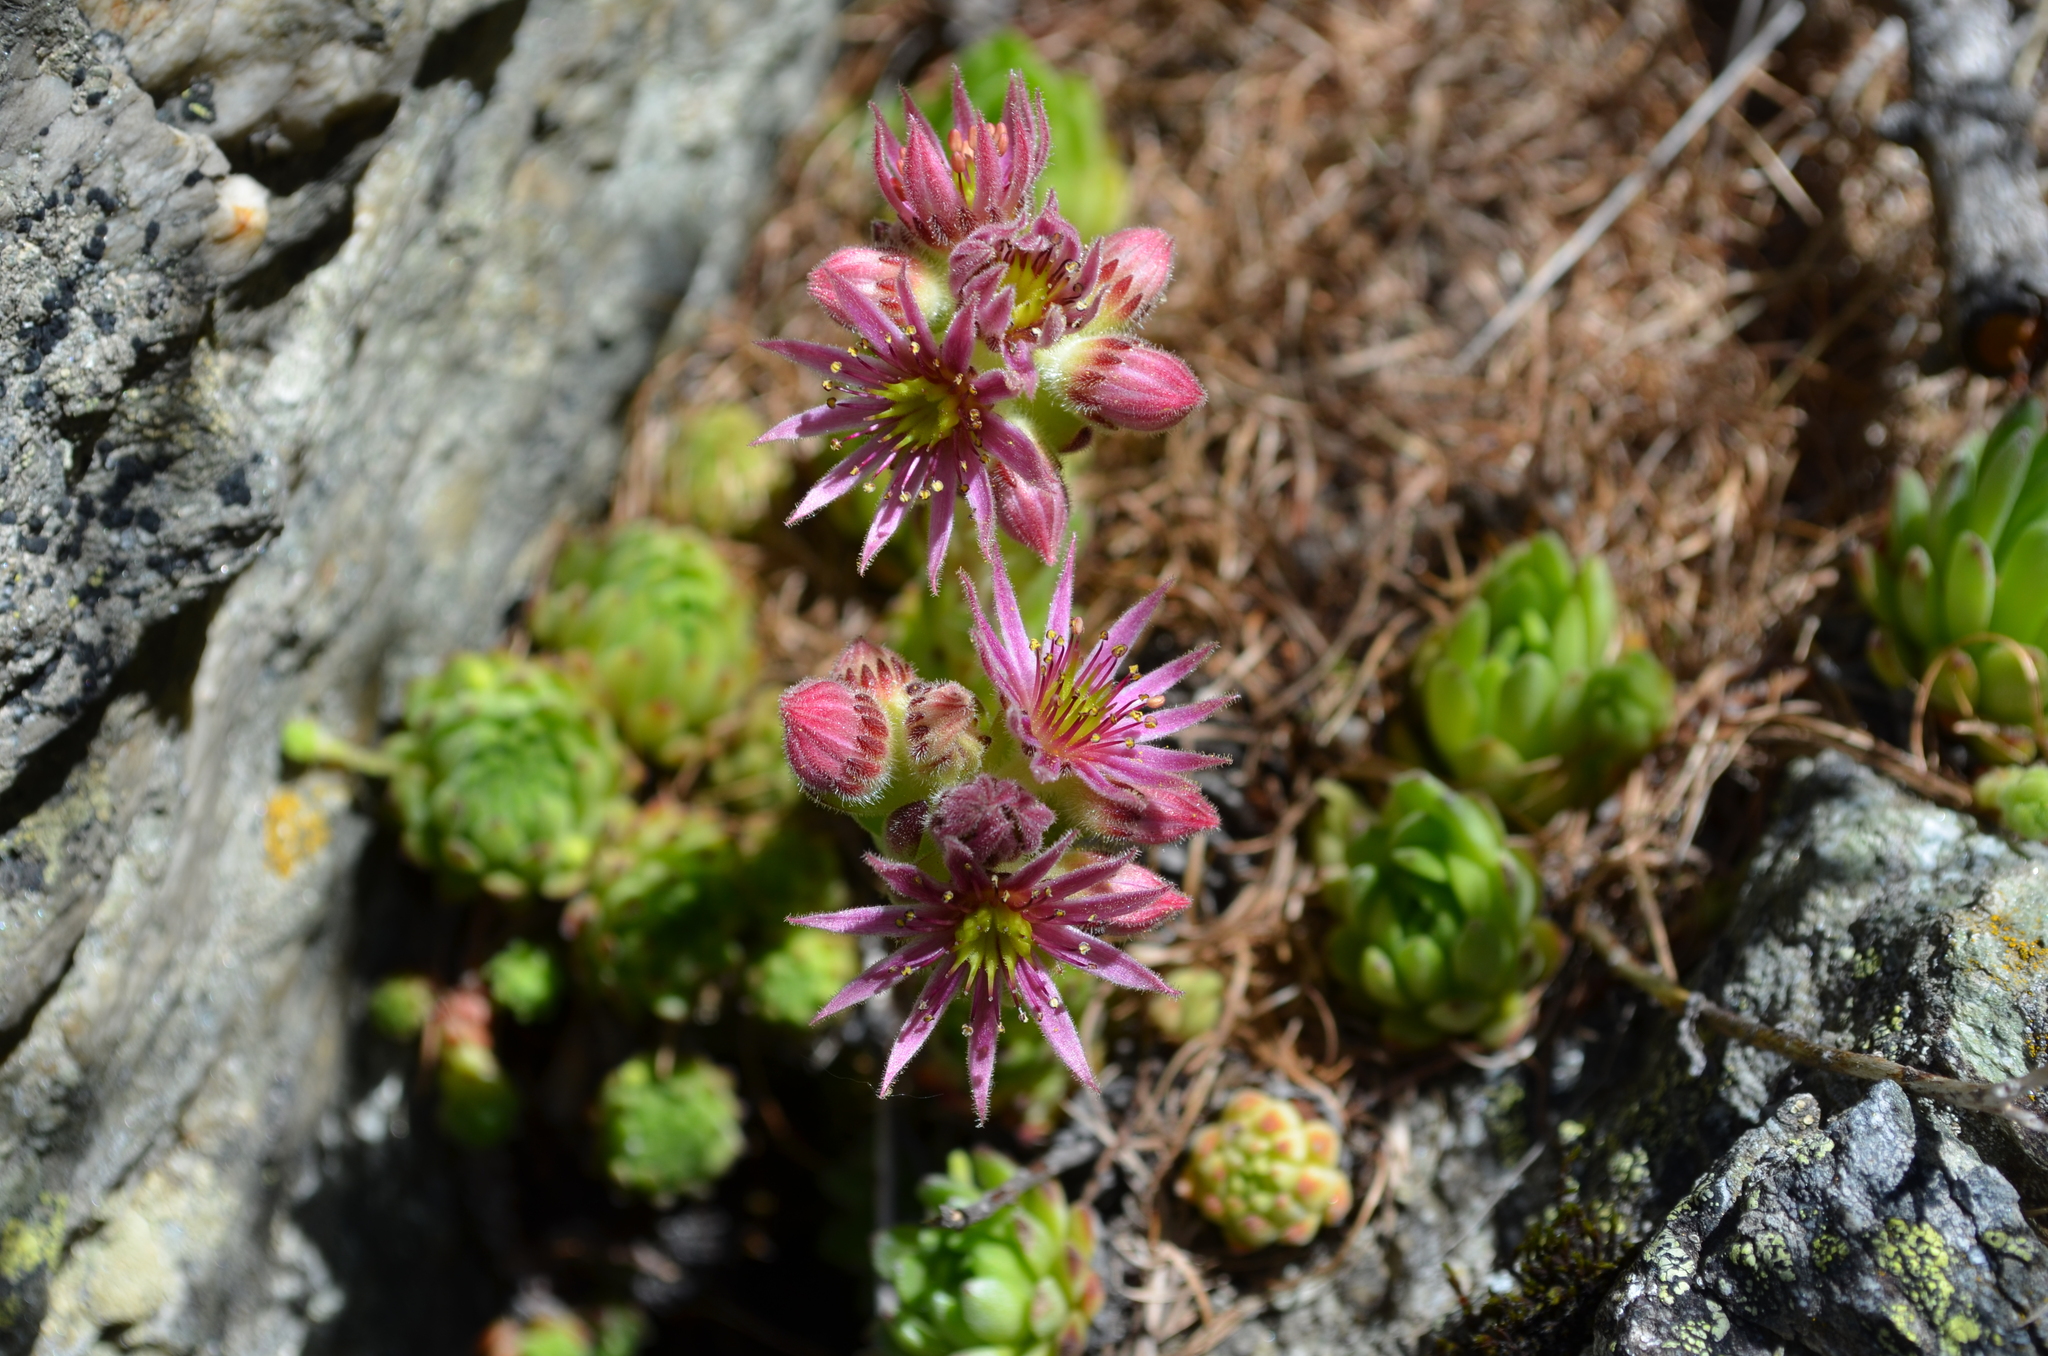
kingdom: Plantae
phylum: Tracheophyta
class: Magnoliopsida
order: Saxifragales
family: Crassulaceae
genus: Sempervivum
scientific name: Sempervivum montanum
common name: Mountain house-leek
